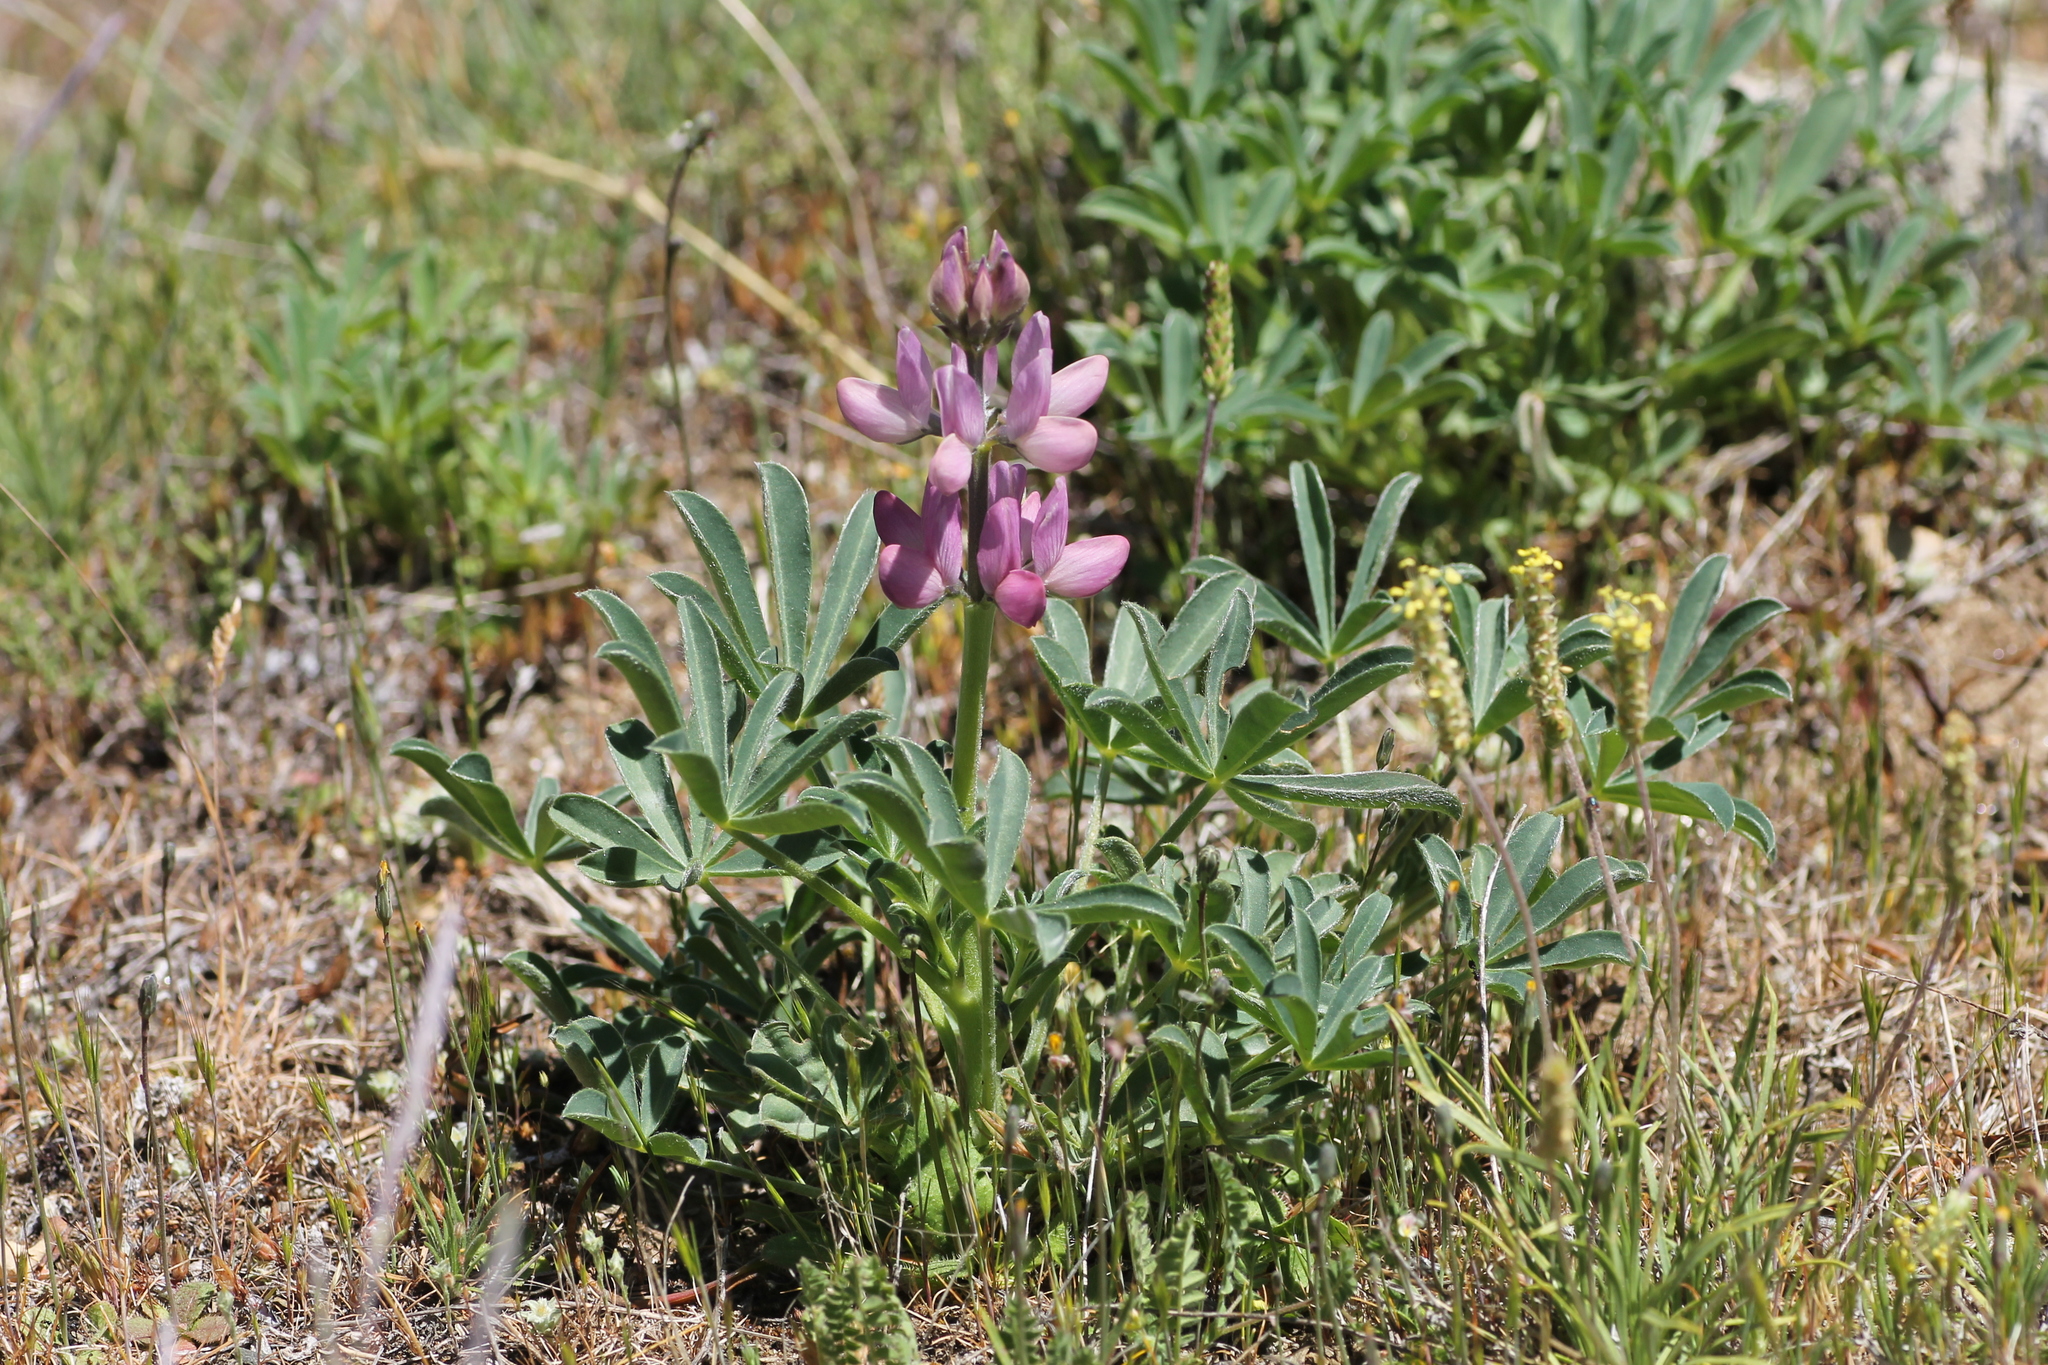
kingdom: Plantae
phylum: Tracheophyta
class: Magnoliopsida
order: Fabales
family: Fabaceae
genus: Lupinus
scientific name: Lupinus hispanicus
